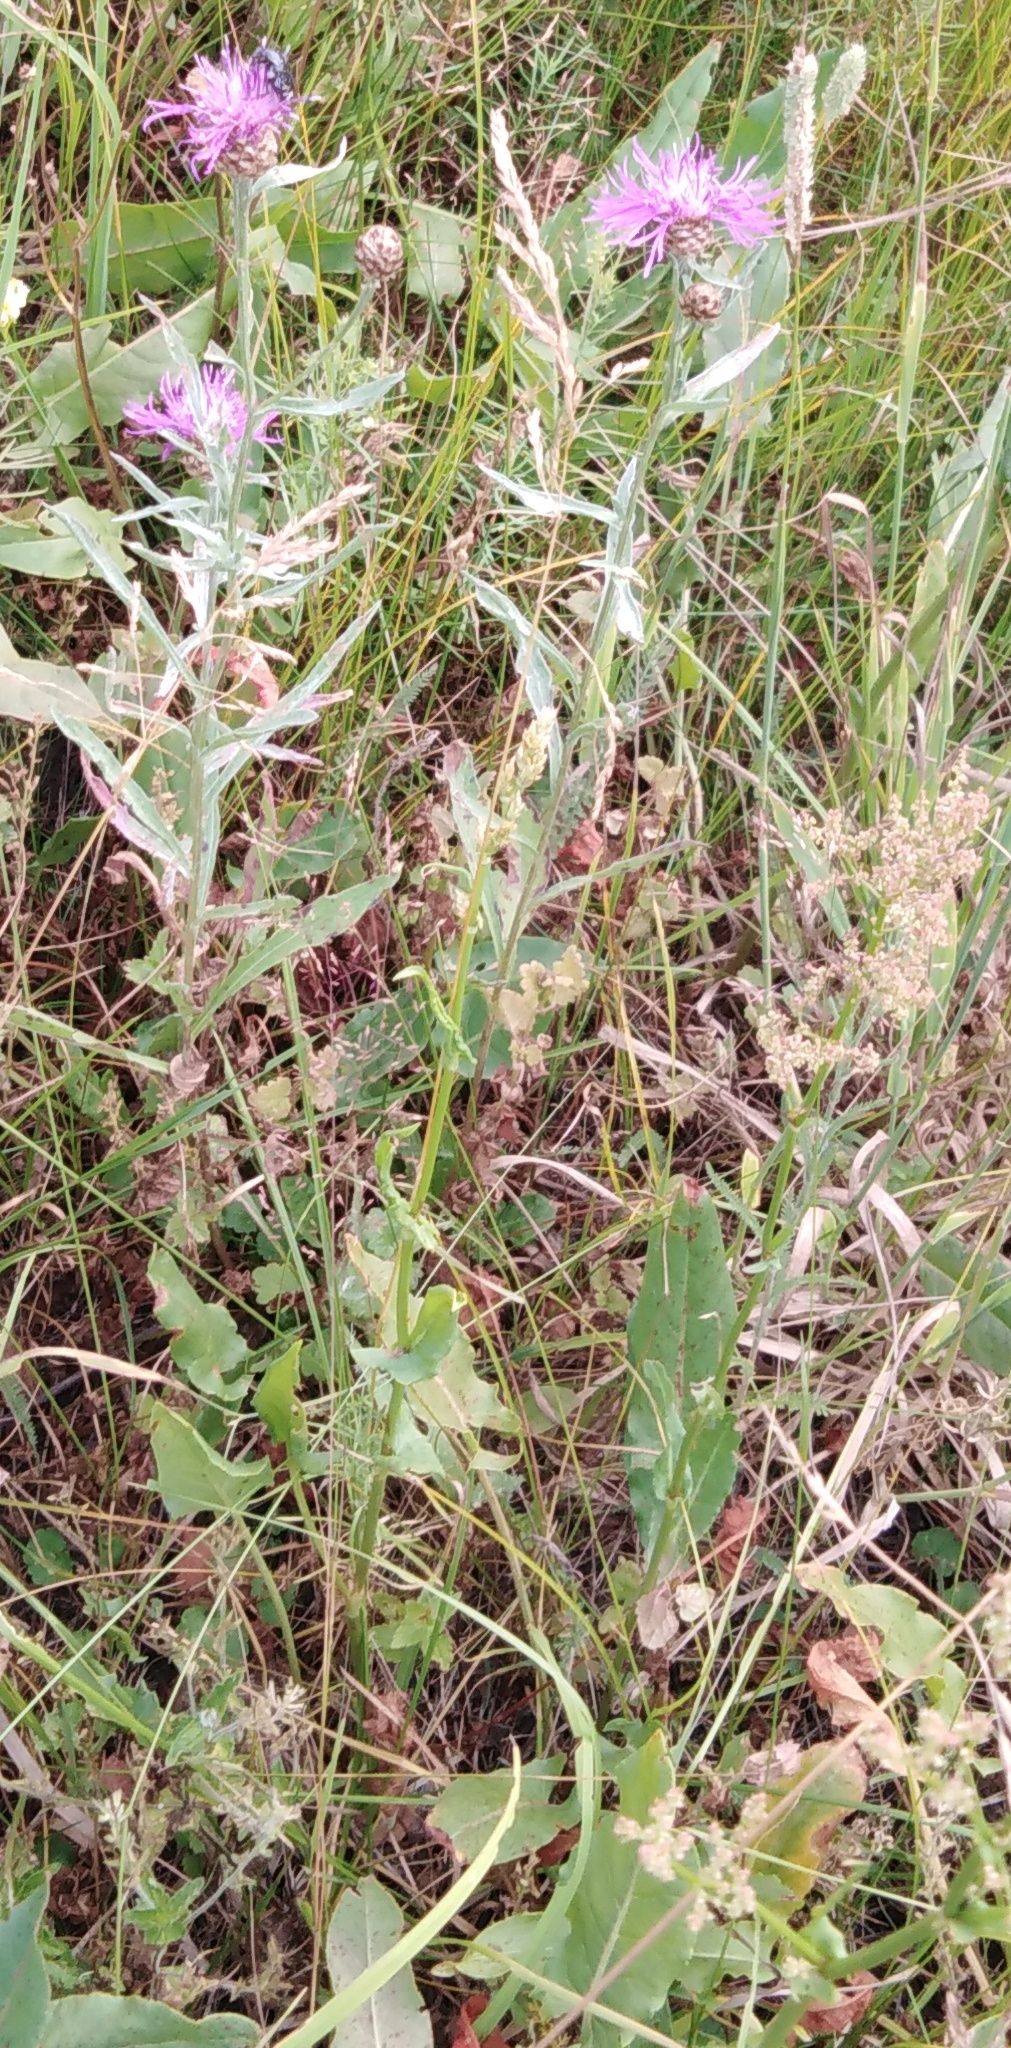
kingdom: Plantae
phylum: Tracheophyta
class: Magnoliopsida
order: Asterales
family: Asteraceae
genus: Centaurea
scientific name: Centaurea jacea
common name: Brown knapweed
